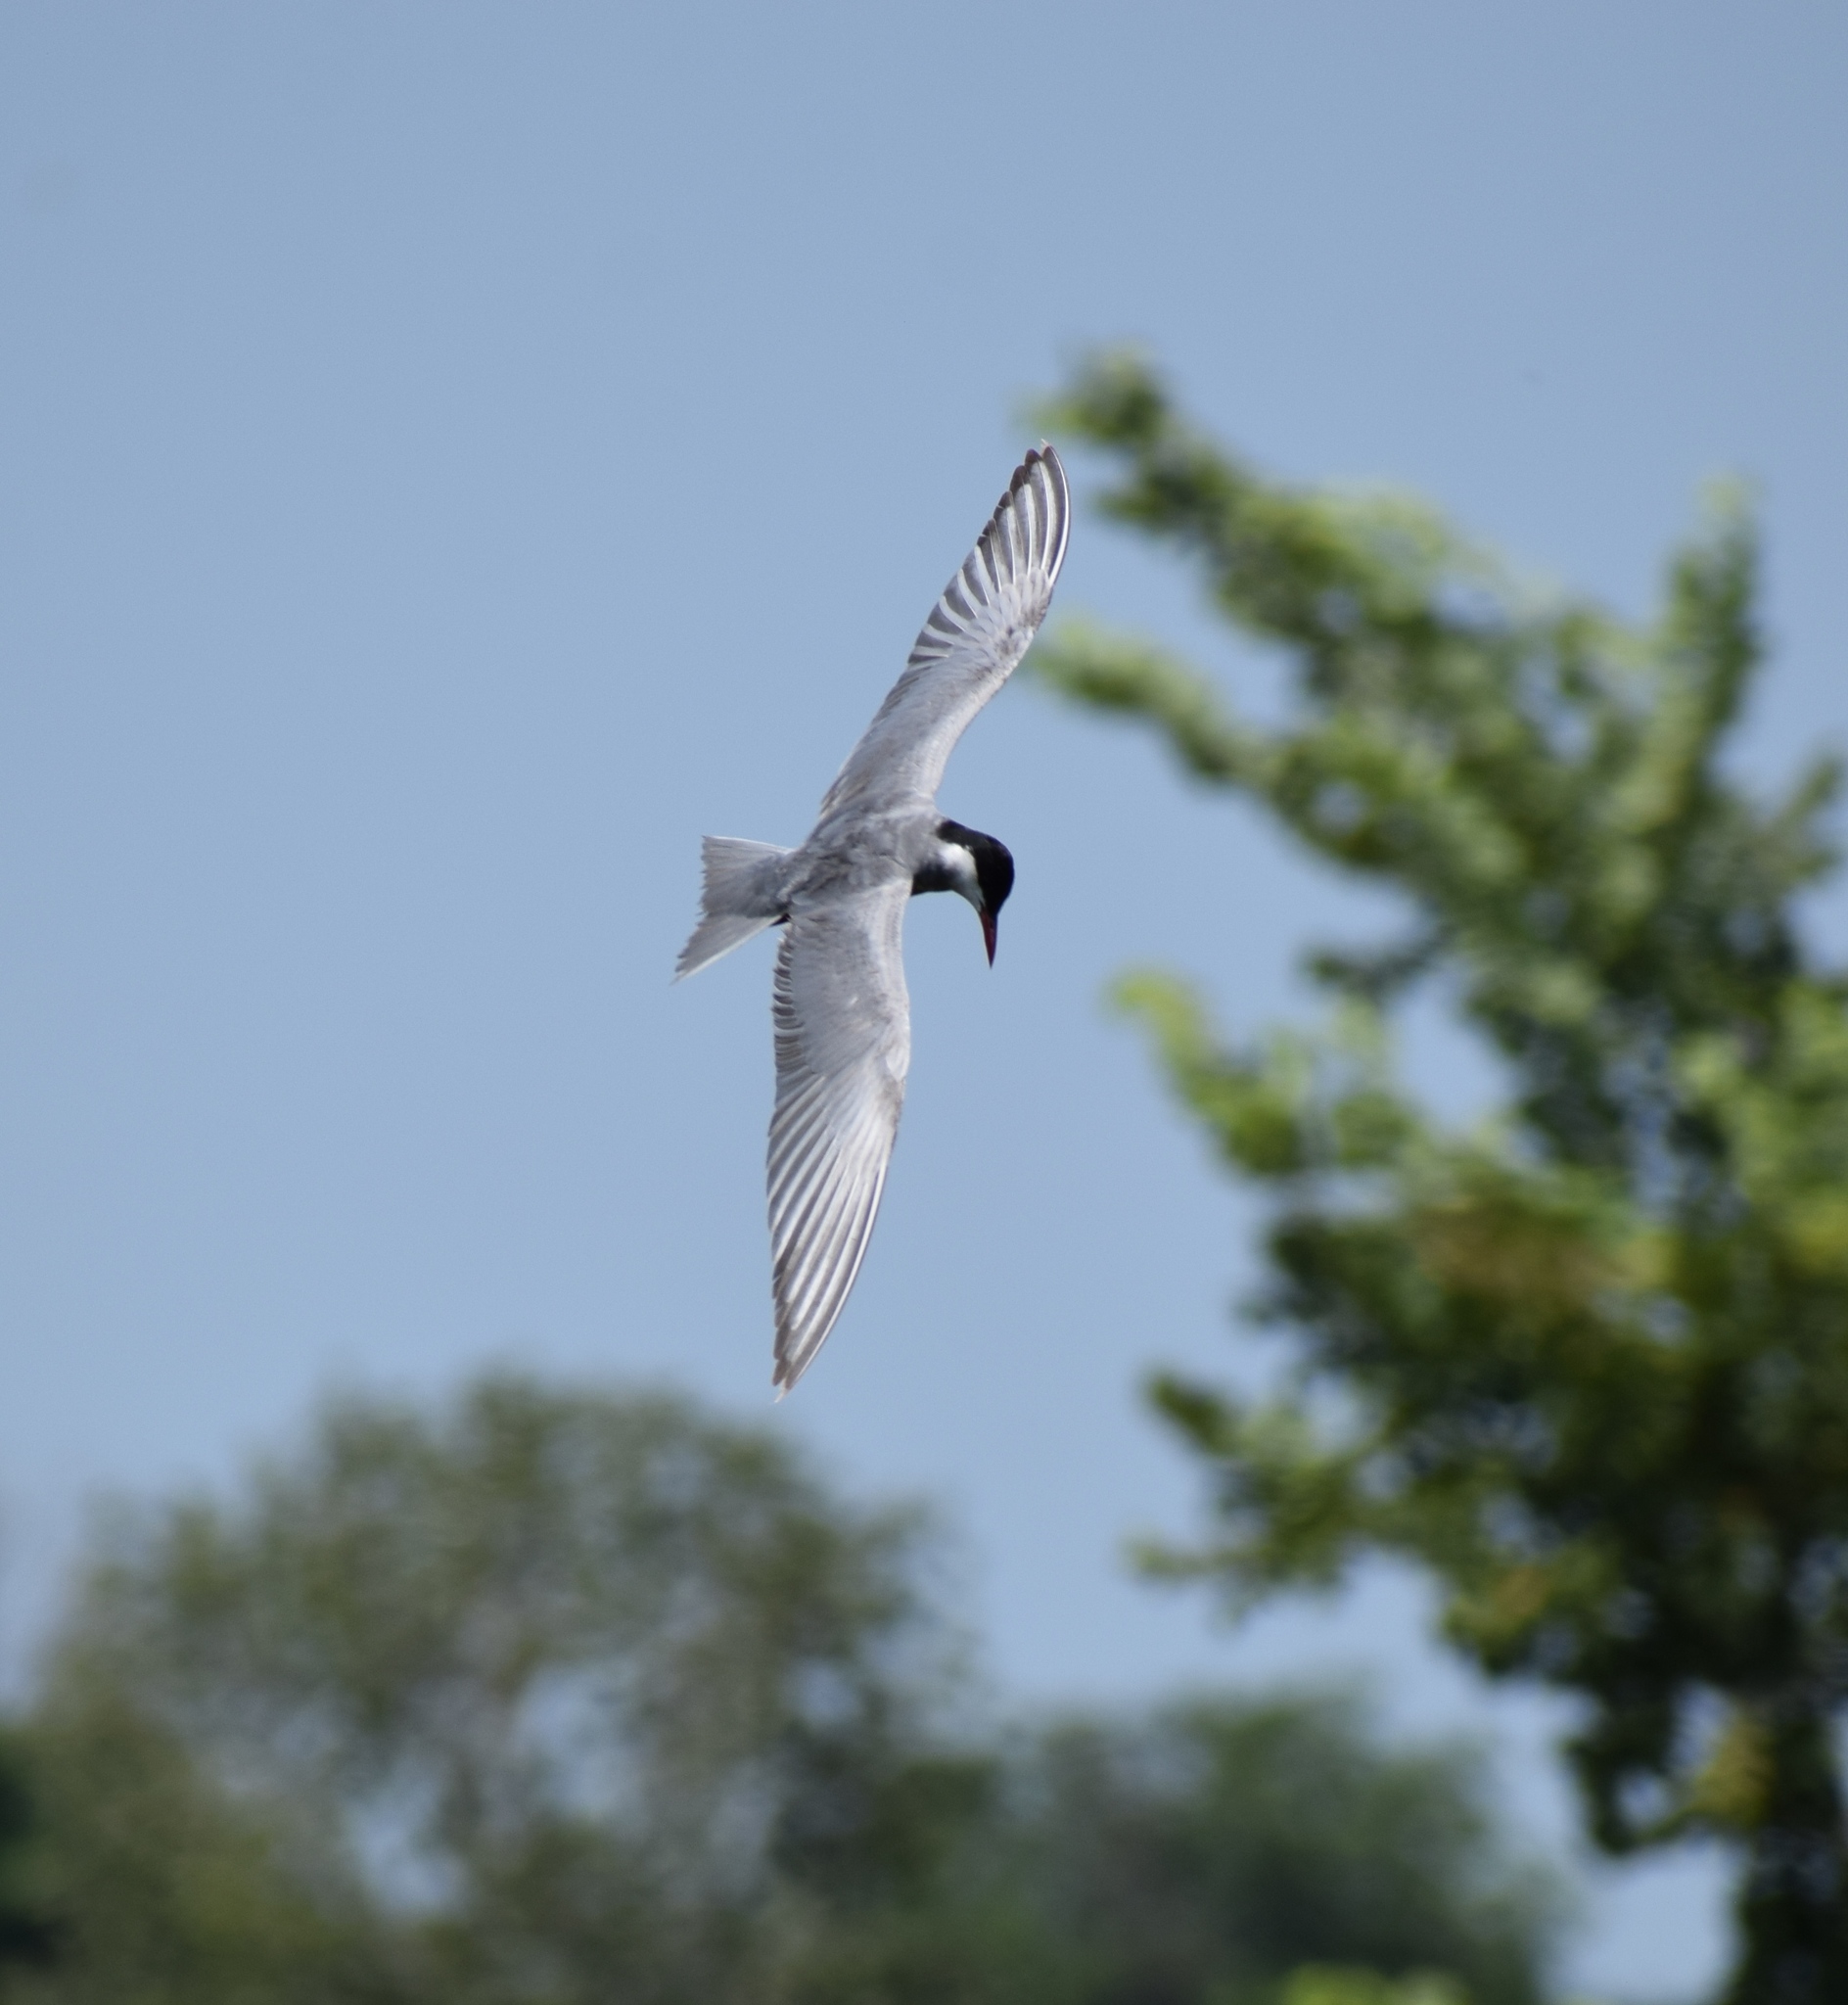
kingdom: Animalia
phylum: Chordata
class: Aves
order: Charadriiformes
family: Laridae
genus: Chlidonias
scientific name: Chlidonias hybrida
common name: Whiskered tern
